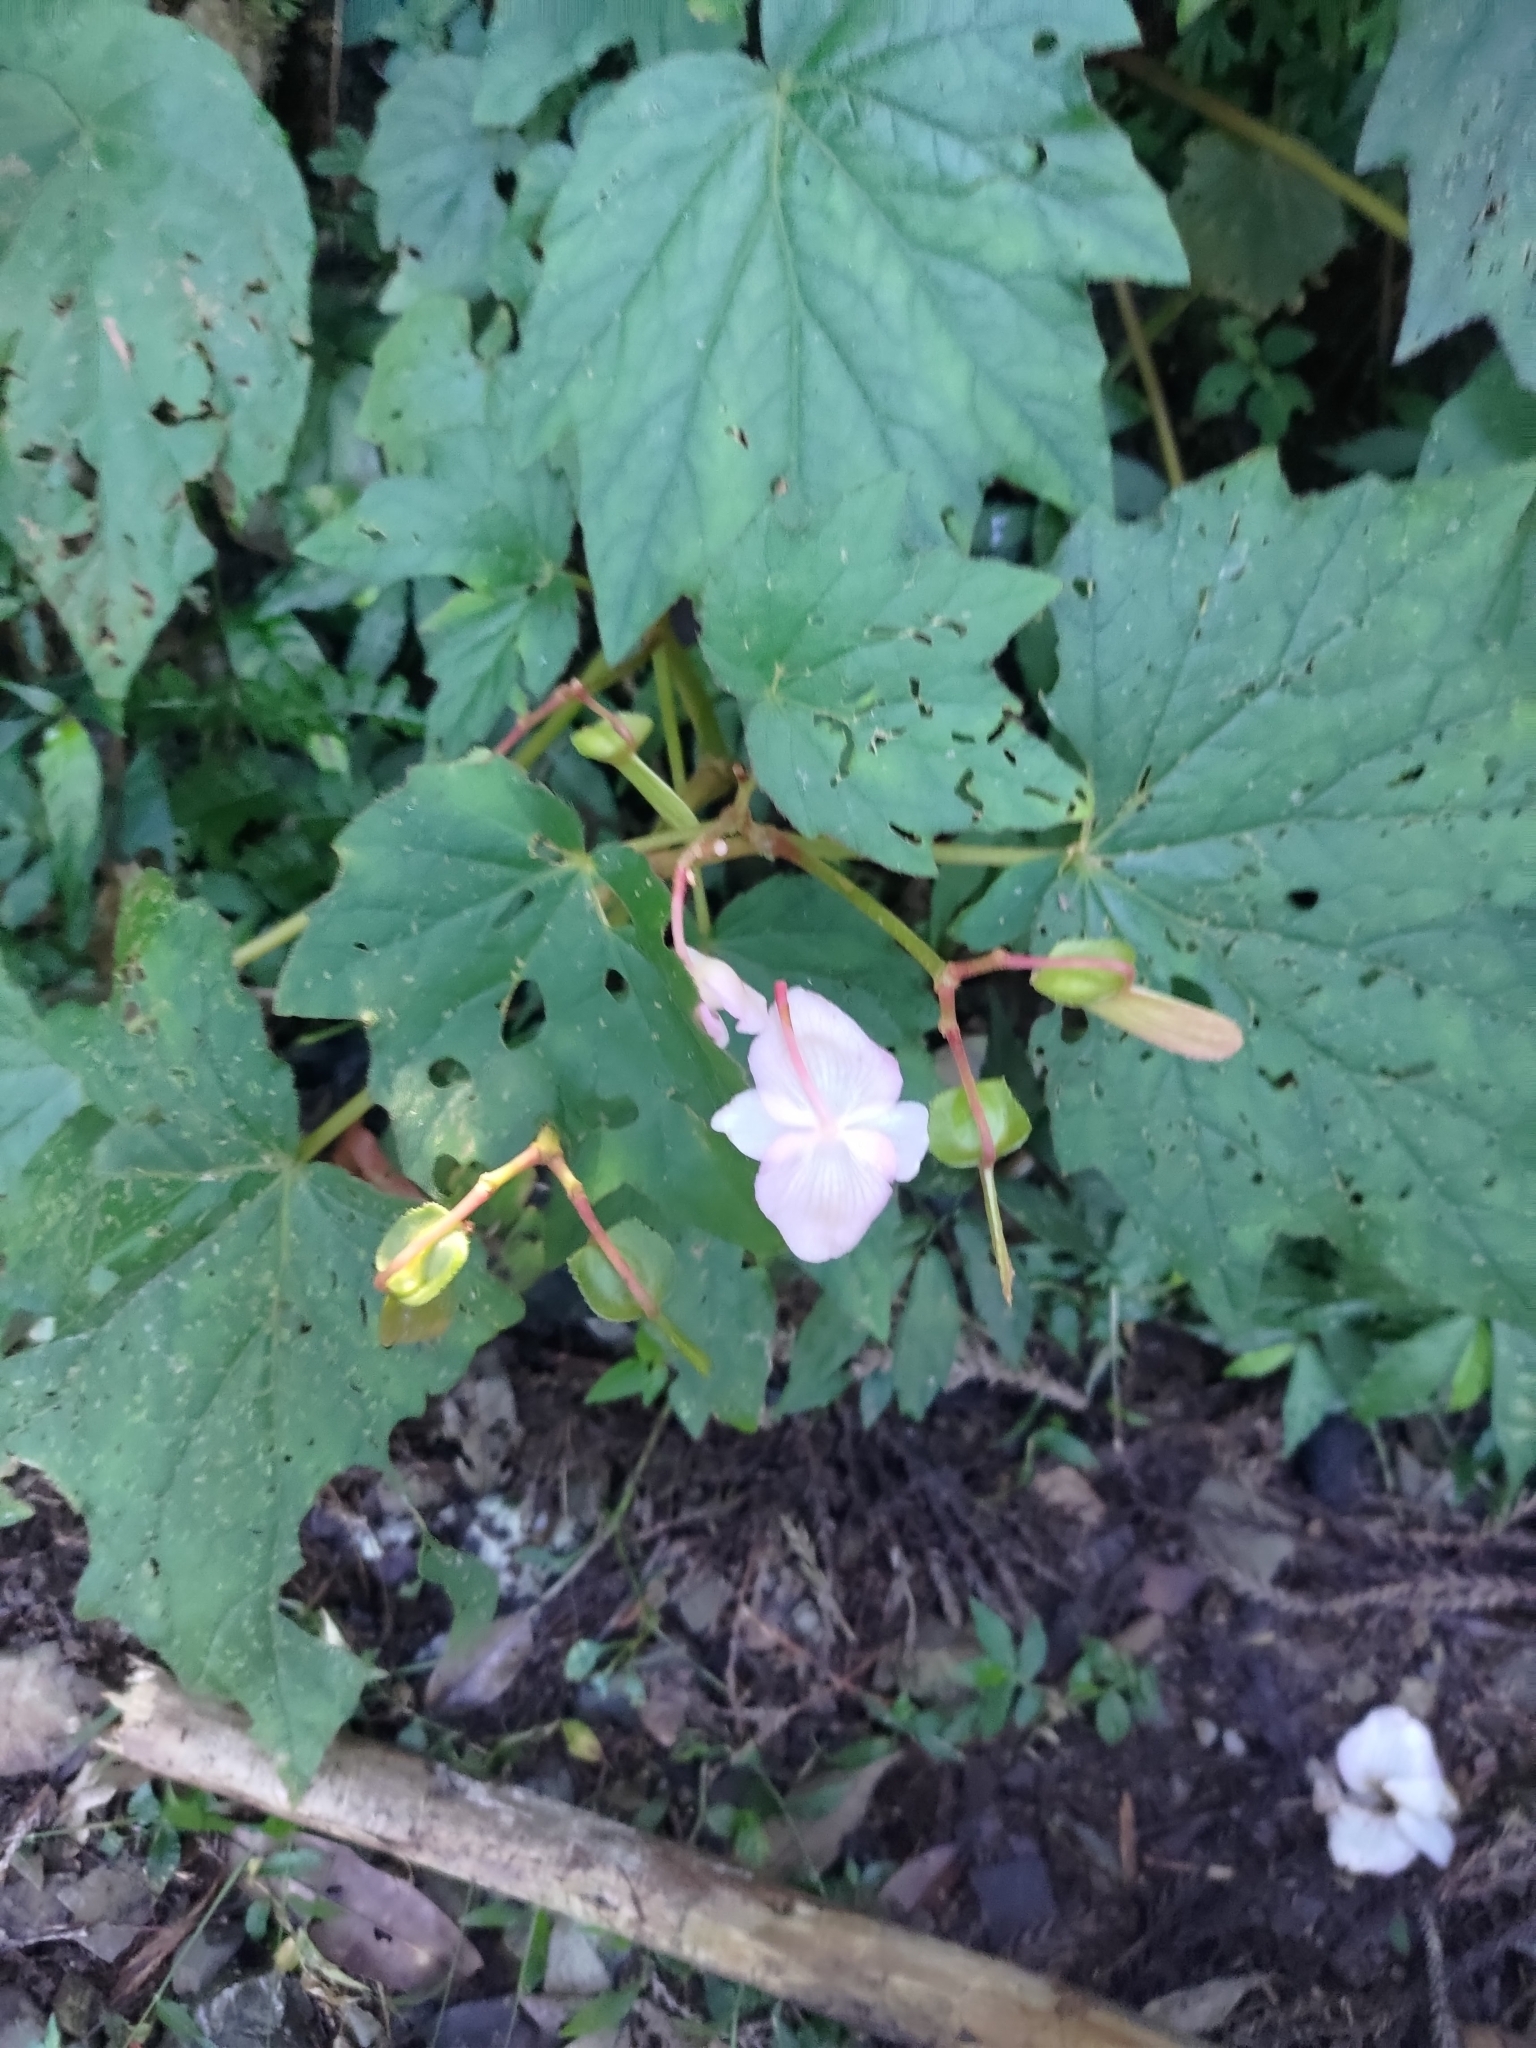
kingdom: Plantae
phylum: Tracheophyta
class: Magnoliopsida
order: Cucurbitales
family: Begoniaceae
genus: Begonia
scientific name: Begonia palmata
